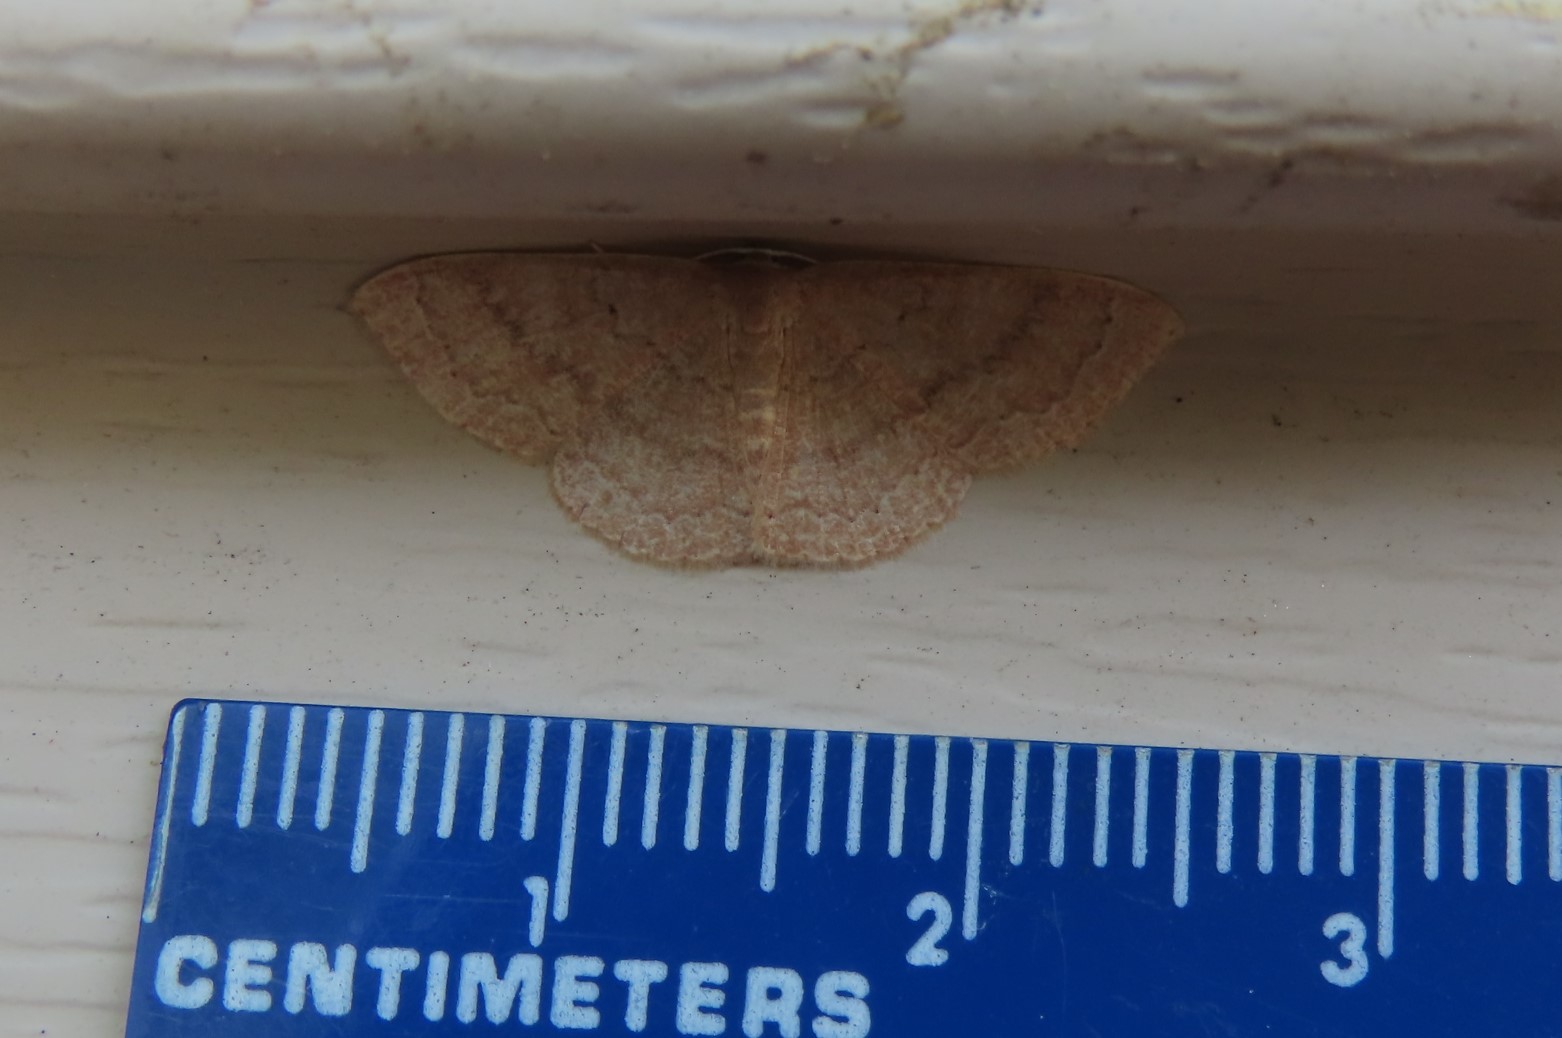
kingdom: Animalia
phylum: Arthropoda
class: Insecta
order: Lepidoptera
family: Geometridae
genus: Pleuroprucha
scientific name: Pleuroprucha insulsaria
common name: Common tan wave
